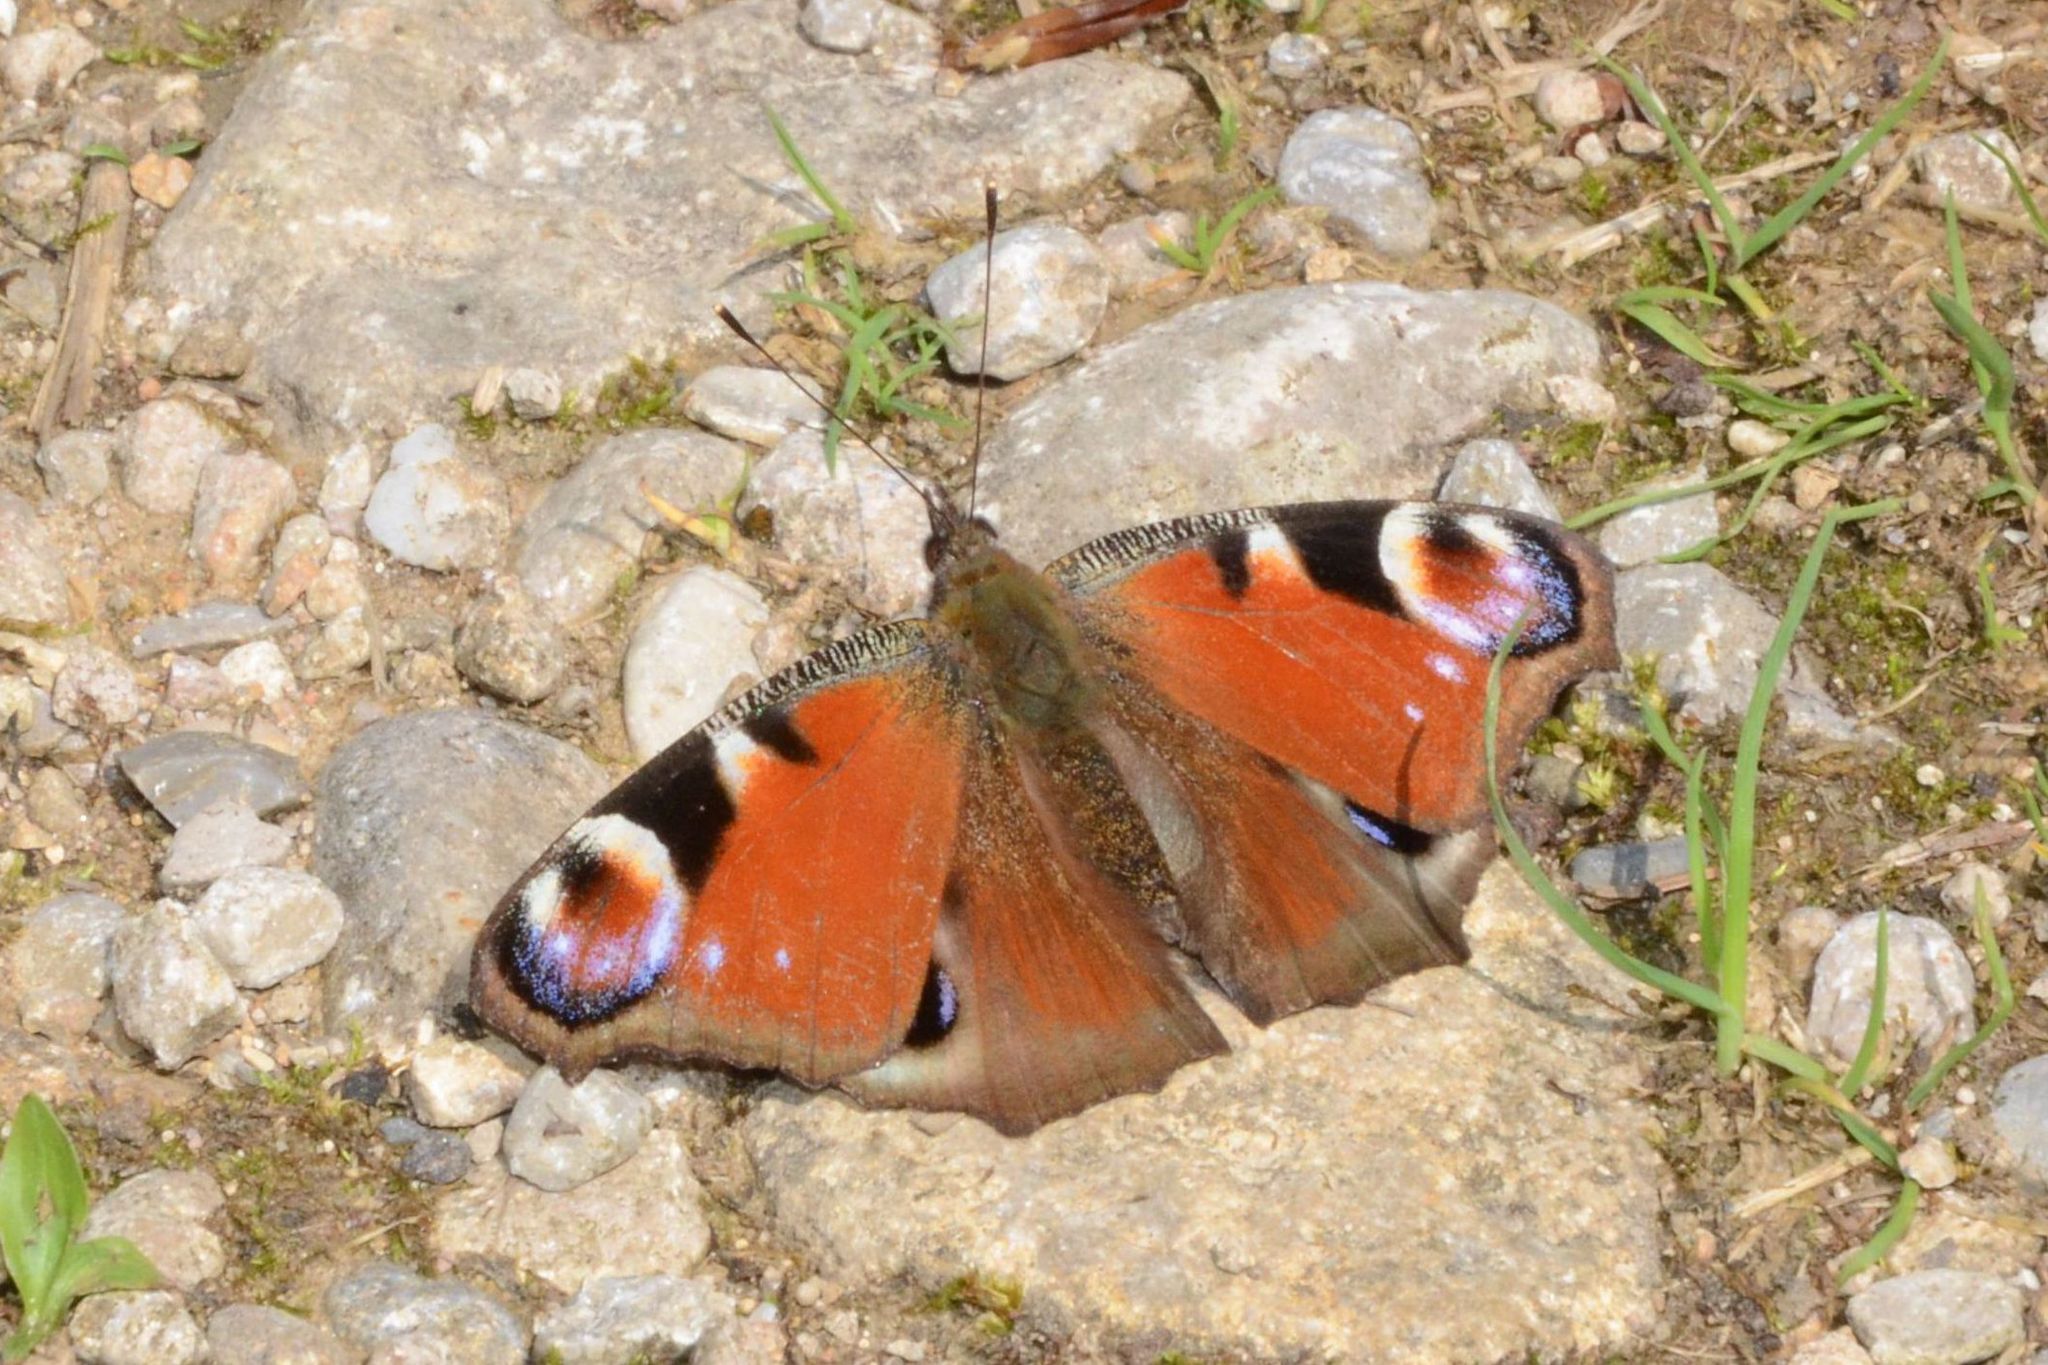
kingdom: Animalia
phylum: Arthropoda
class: Insecta
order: Lepidoptera
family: Nymphalidae
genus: Aglais
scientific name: Aglais io
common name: Peacock
